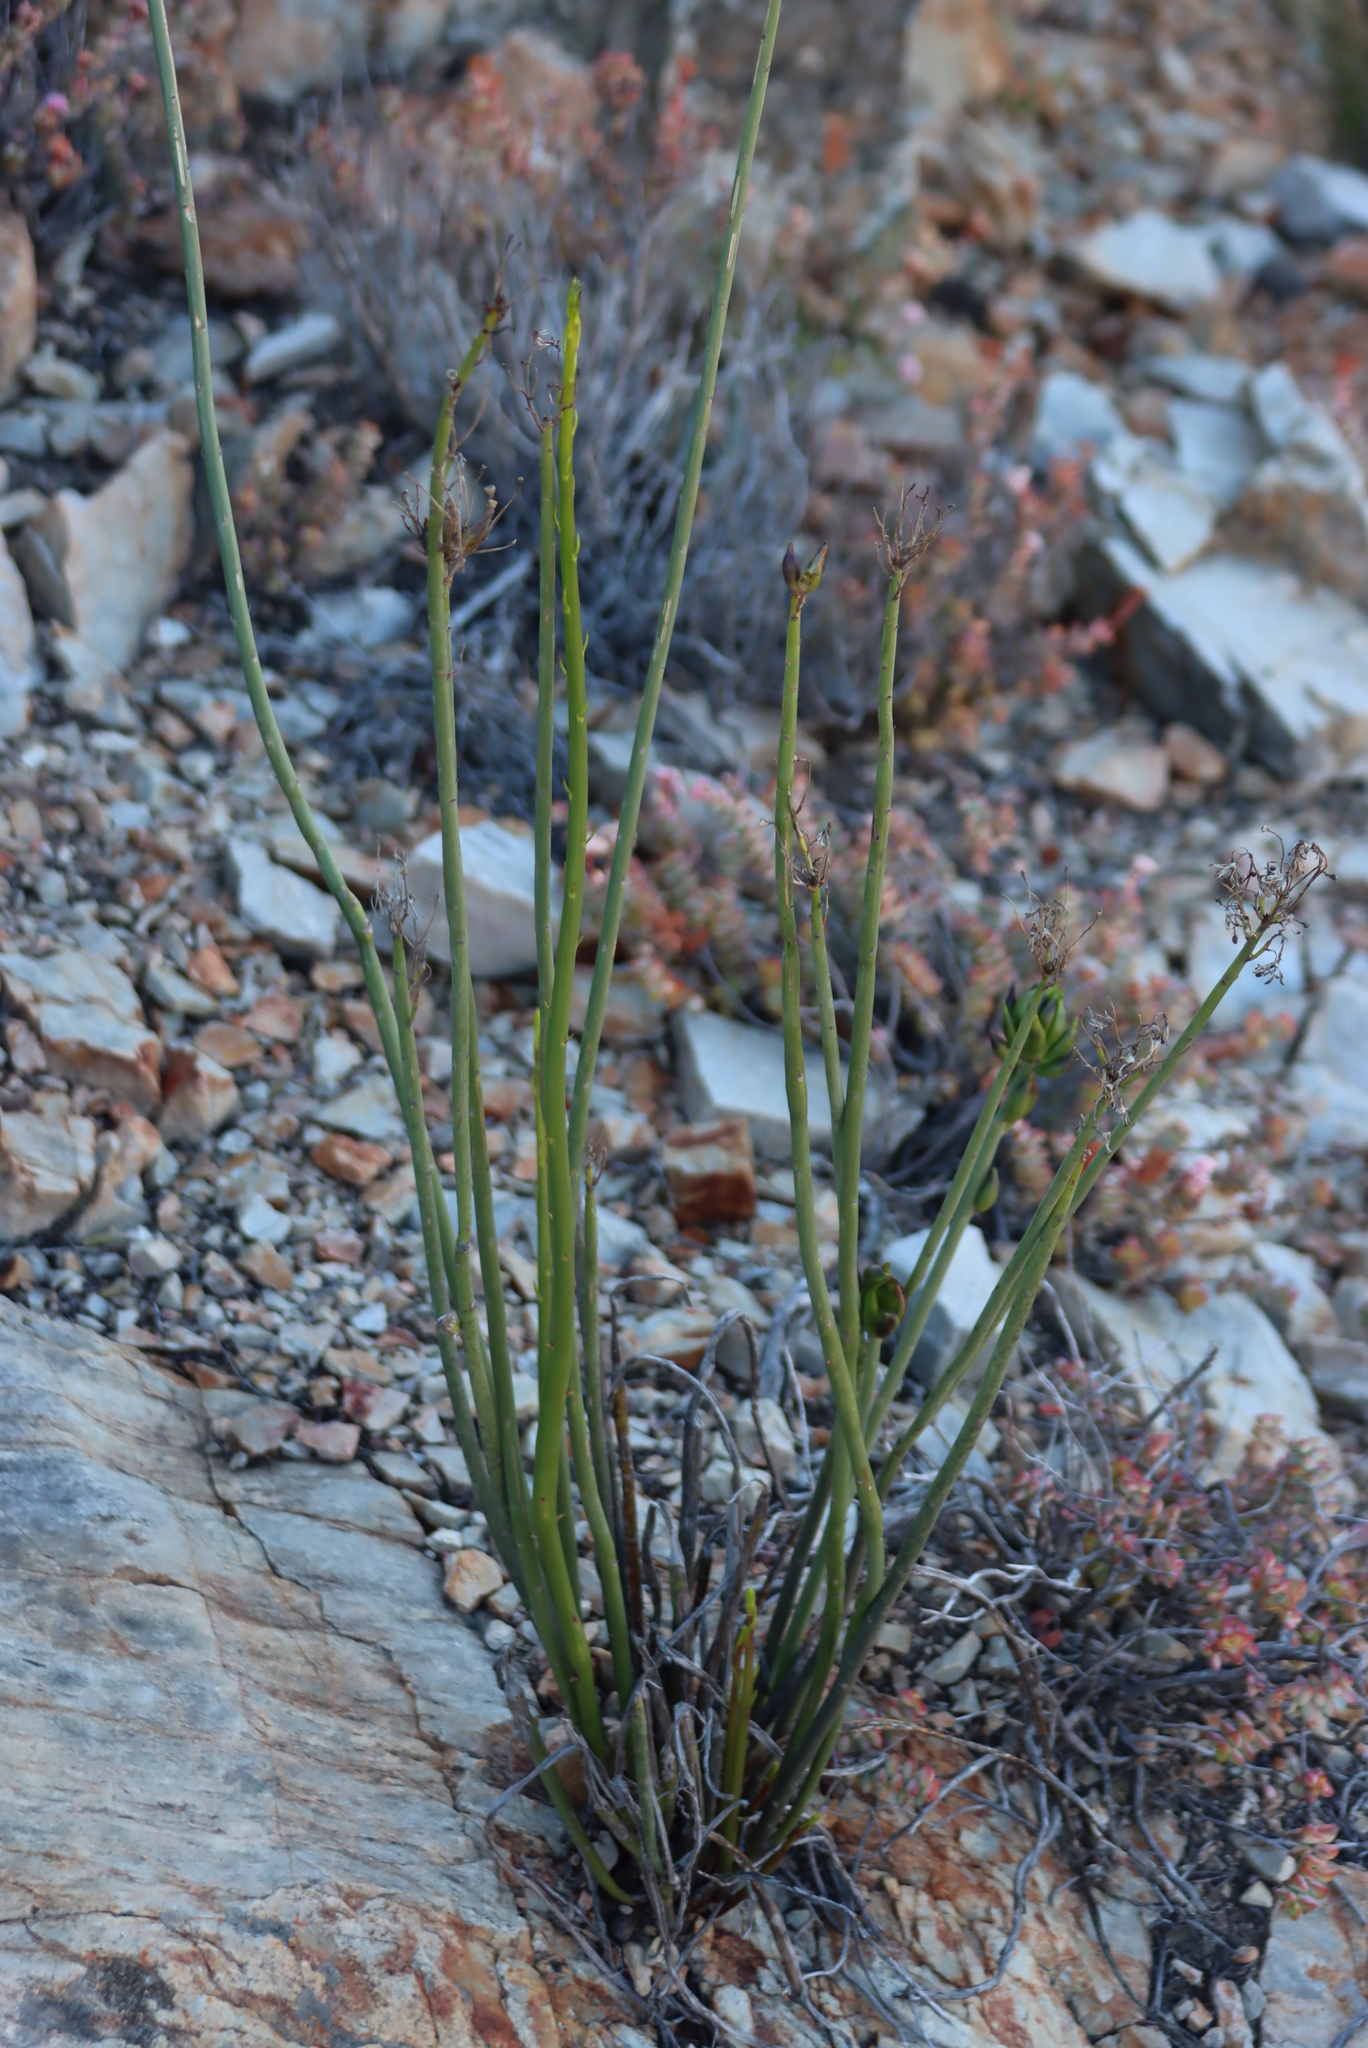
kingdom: Plantae
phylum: Tracheophyta
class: Magnoliopsida
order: Asterales
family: Asteraceae
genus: Senecio
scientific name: Senecio junceus
